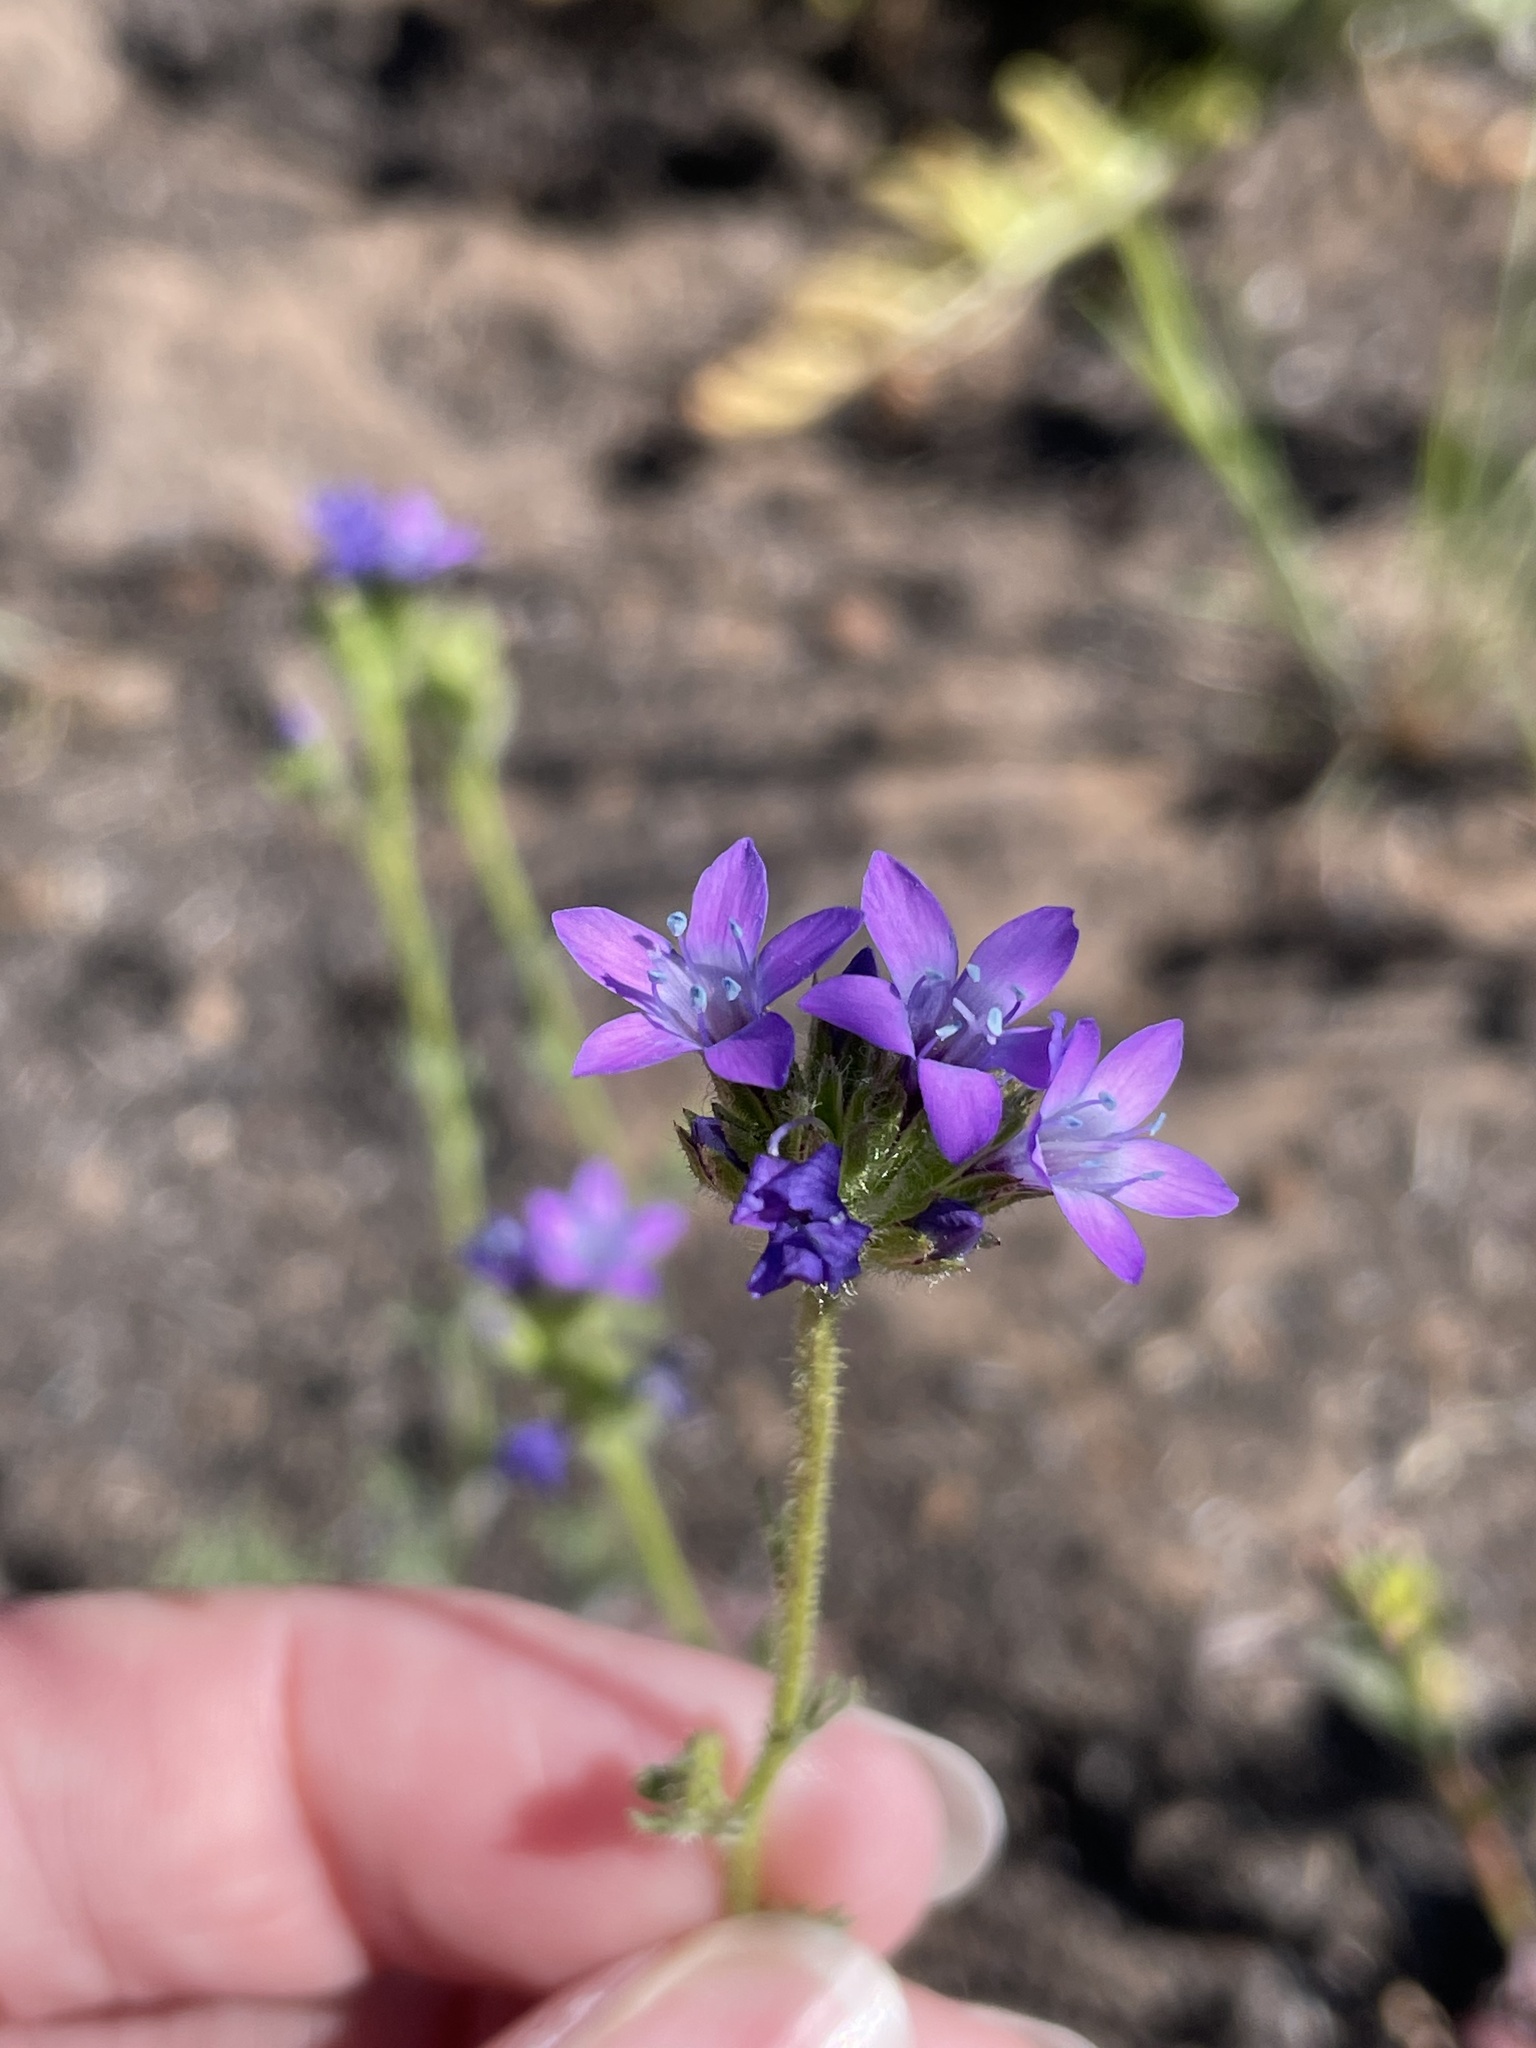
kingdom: Plantae
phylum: Tracheophyta
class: Magnoliopsida
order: Ericales
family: Polemoniaceae
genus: Gilia
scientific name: Gilia nevinii
